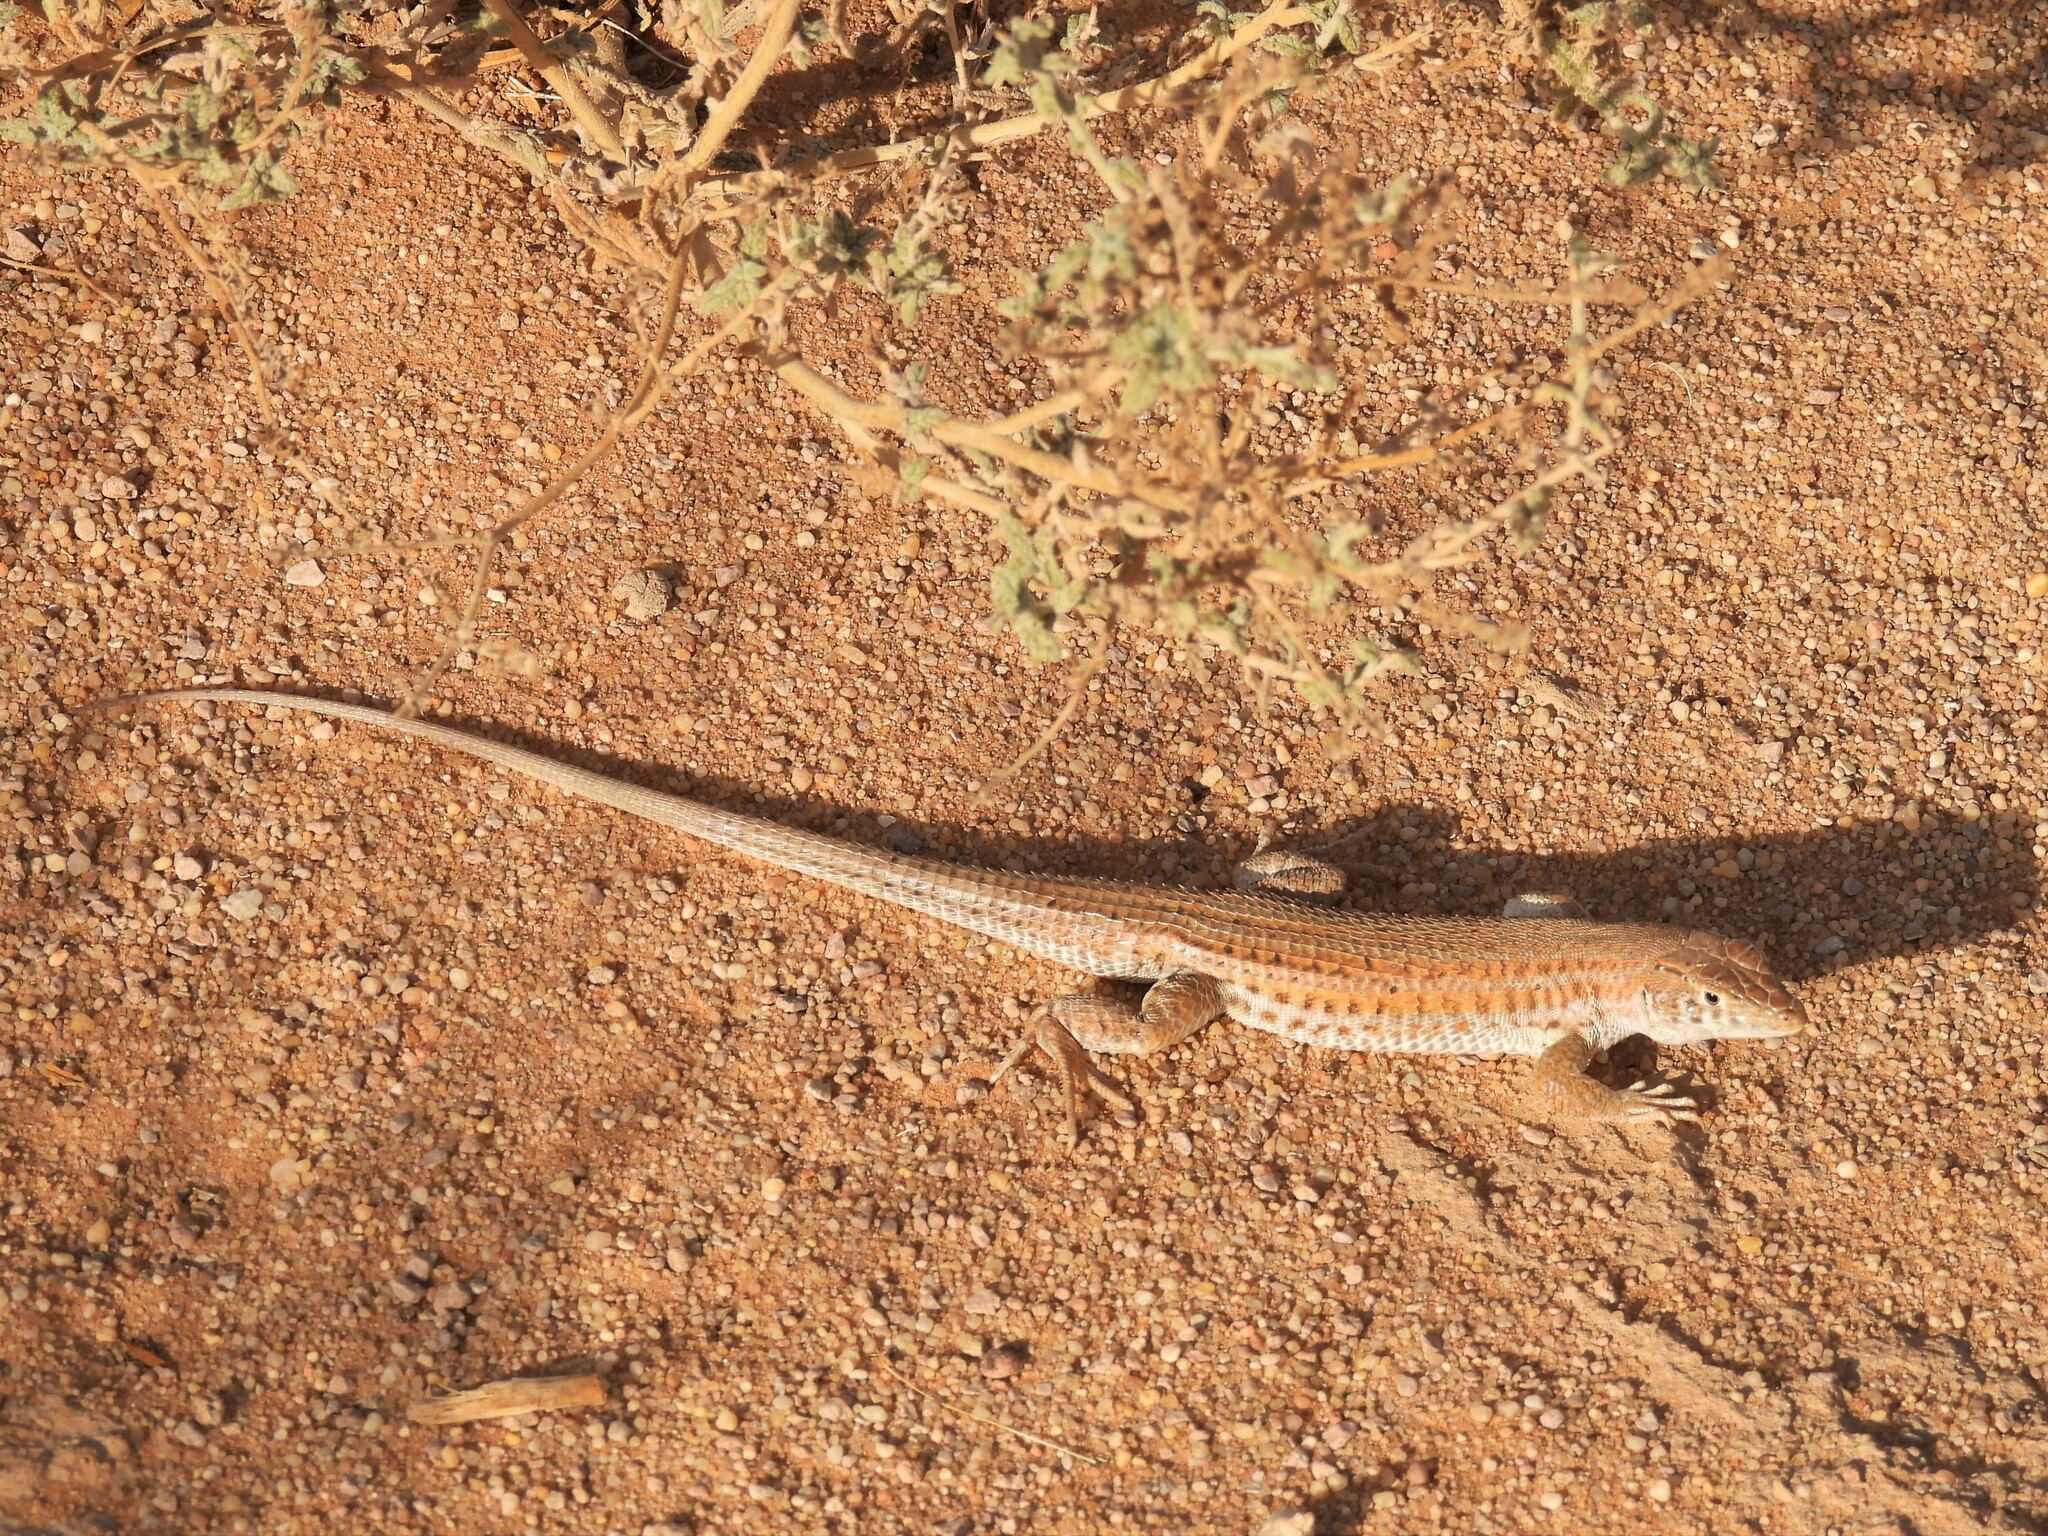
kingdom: Animalia
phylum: Chordata
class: Squamata
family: Lacertidae
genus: Acanthodactylus
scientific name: Acanthodactylus boskianus
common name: Bosc’s fringe-toed lizard
